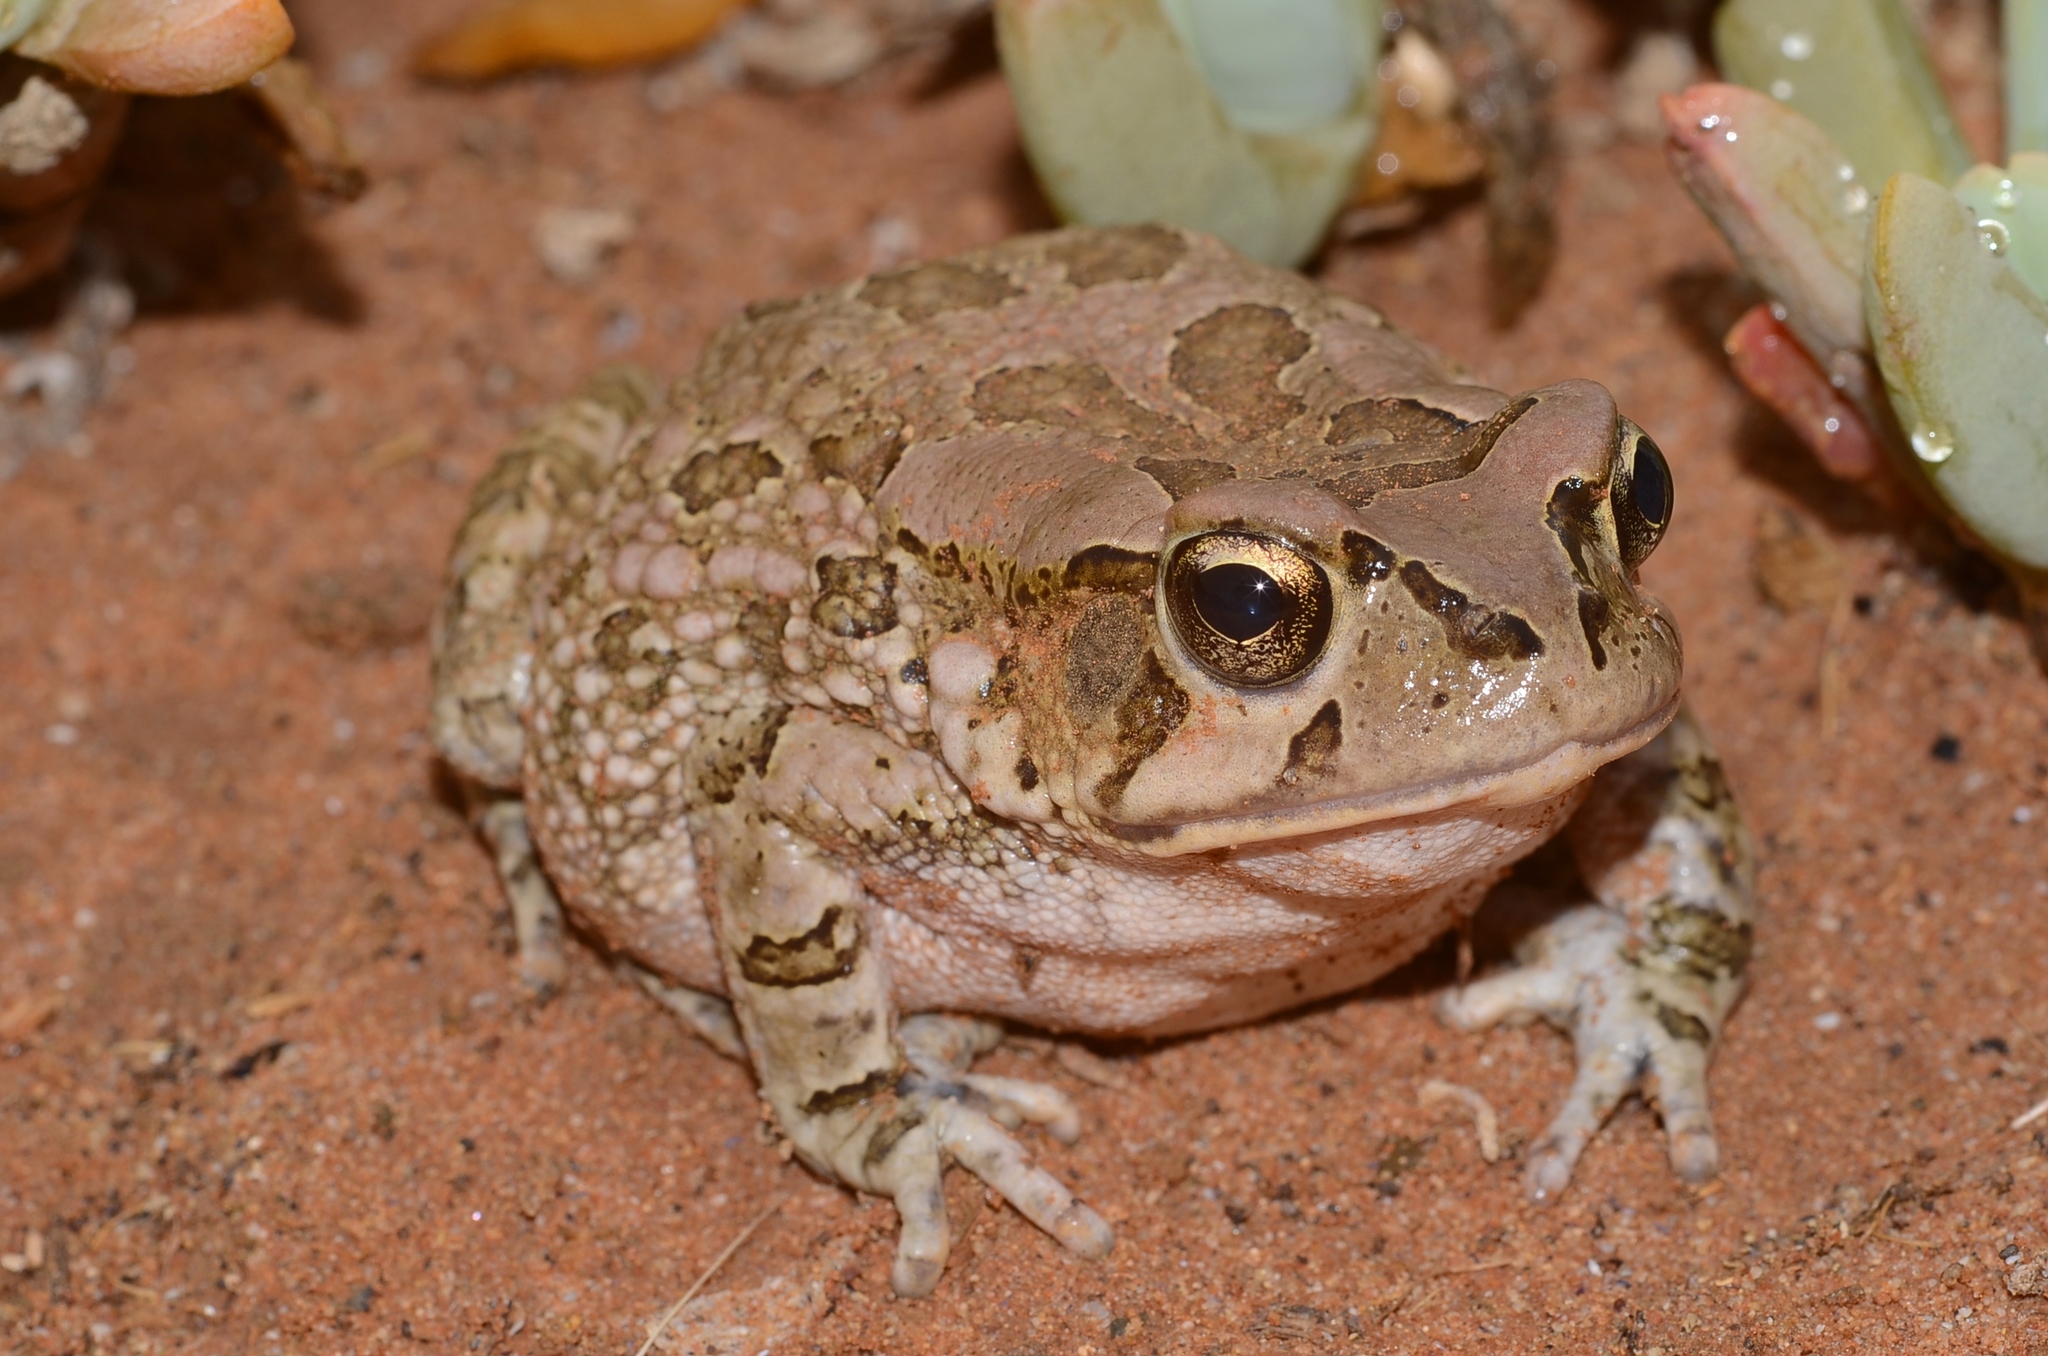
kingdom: Animalia
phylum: Chordata
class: Amphibia
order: Anura
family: Bufonidae
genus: Sclerophrys
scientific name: Sclerophrys capensis
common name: Ranger’s toad
